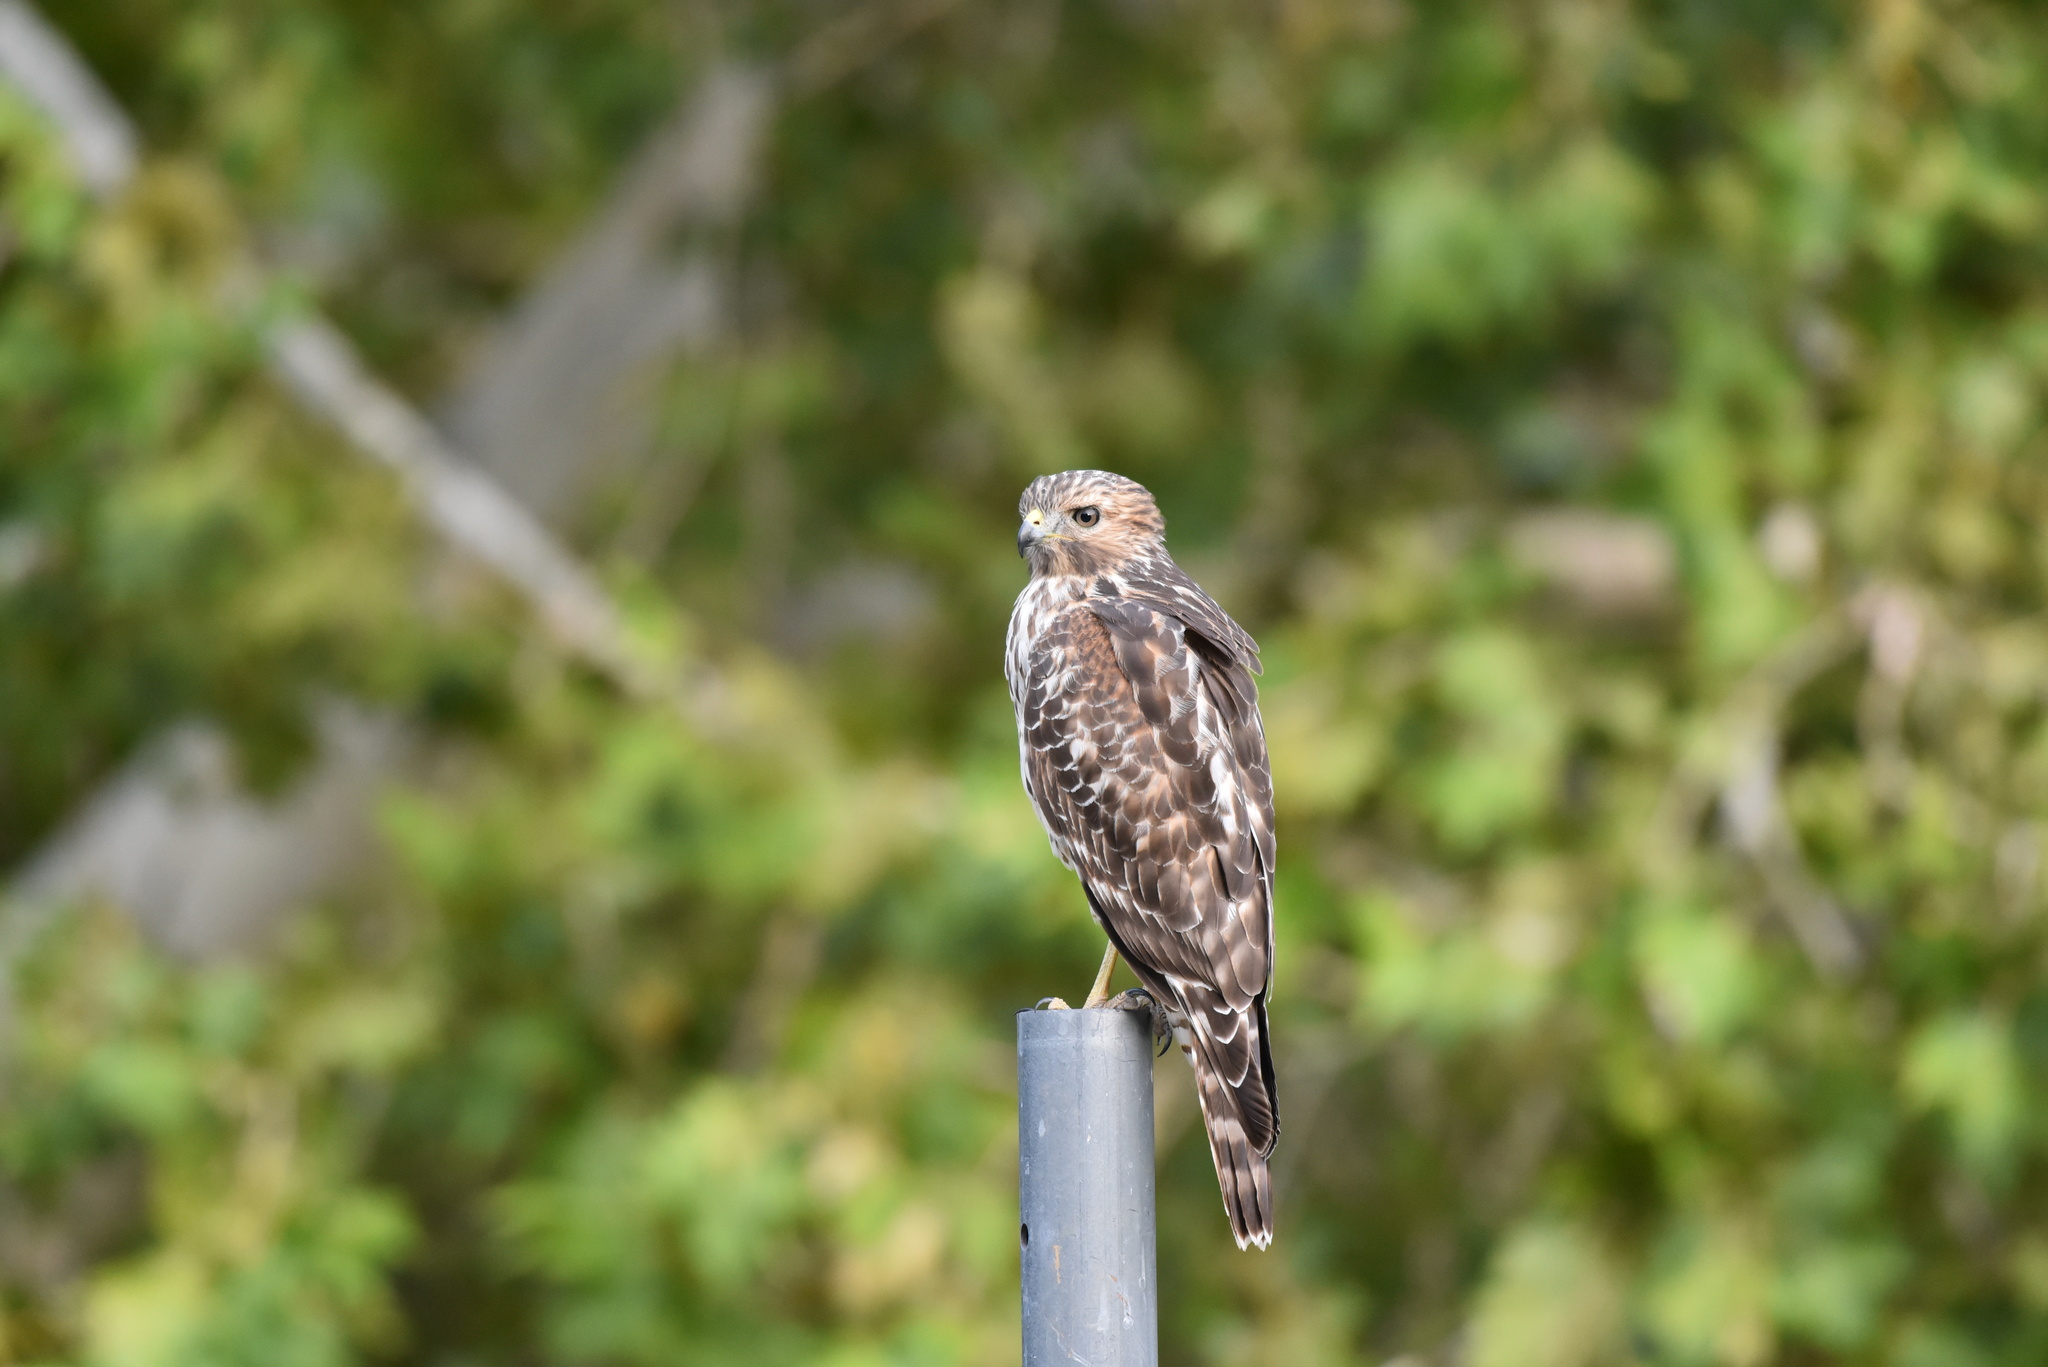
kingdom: Animalia
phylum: Chordata
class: Aves
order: Accipitriformes
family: Accipitridae
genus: Buteo
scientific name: Buteo lineatus
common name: Red-shouldered hawk
